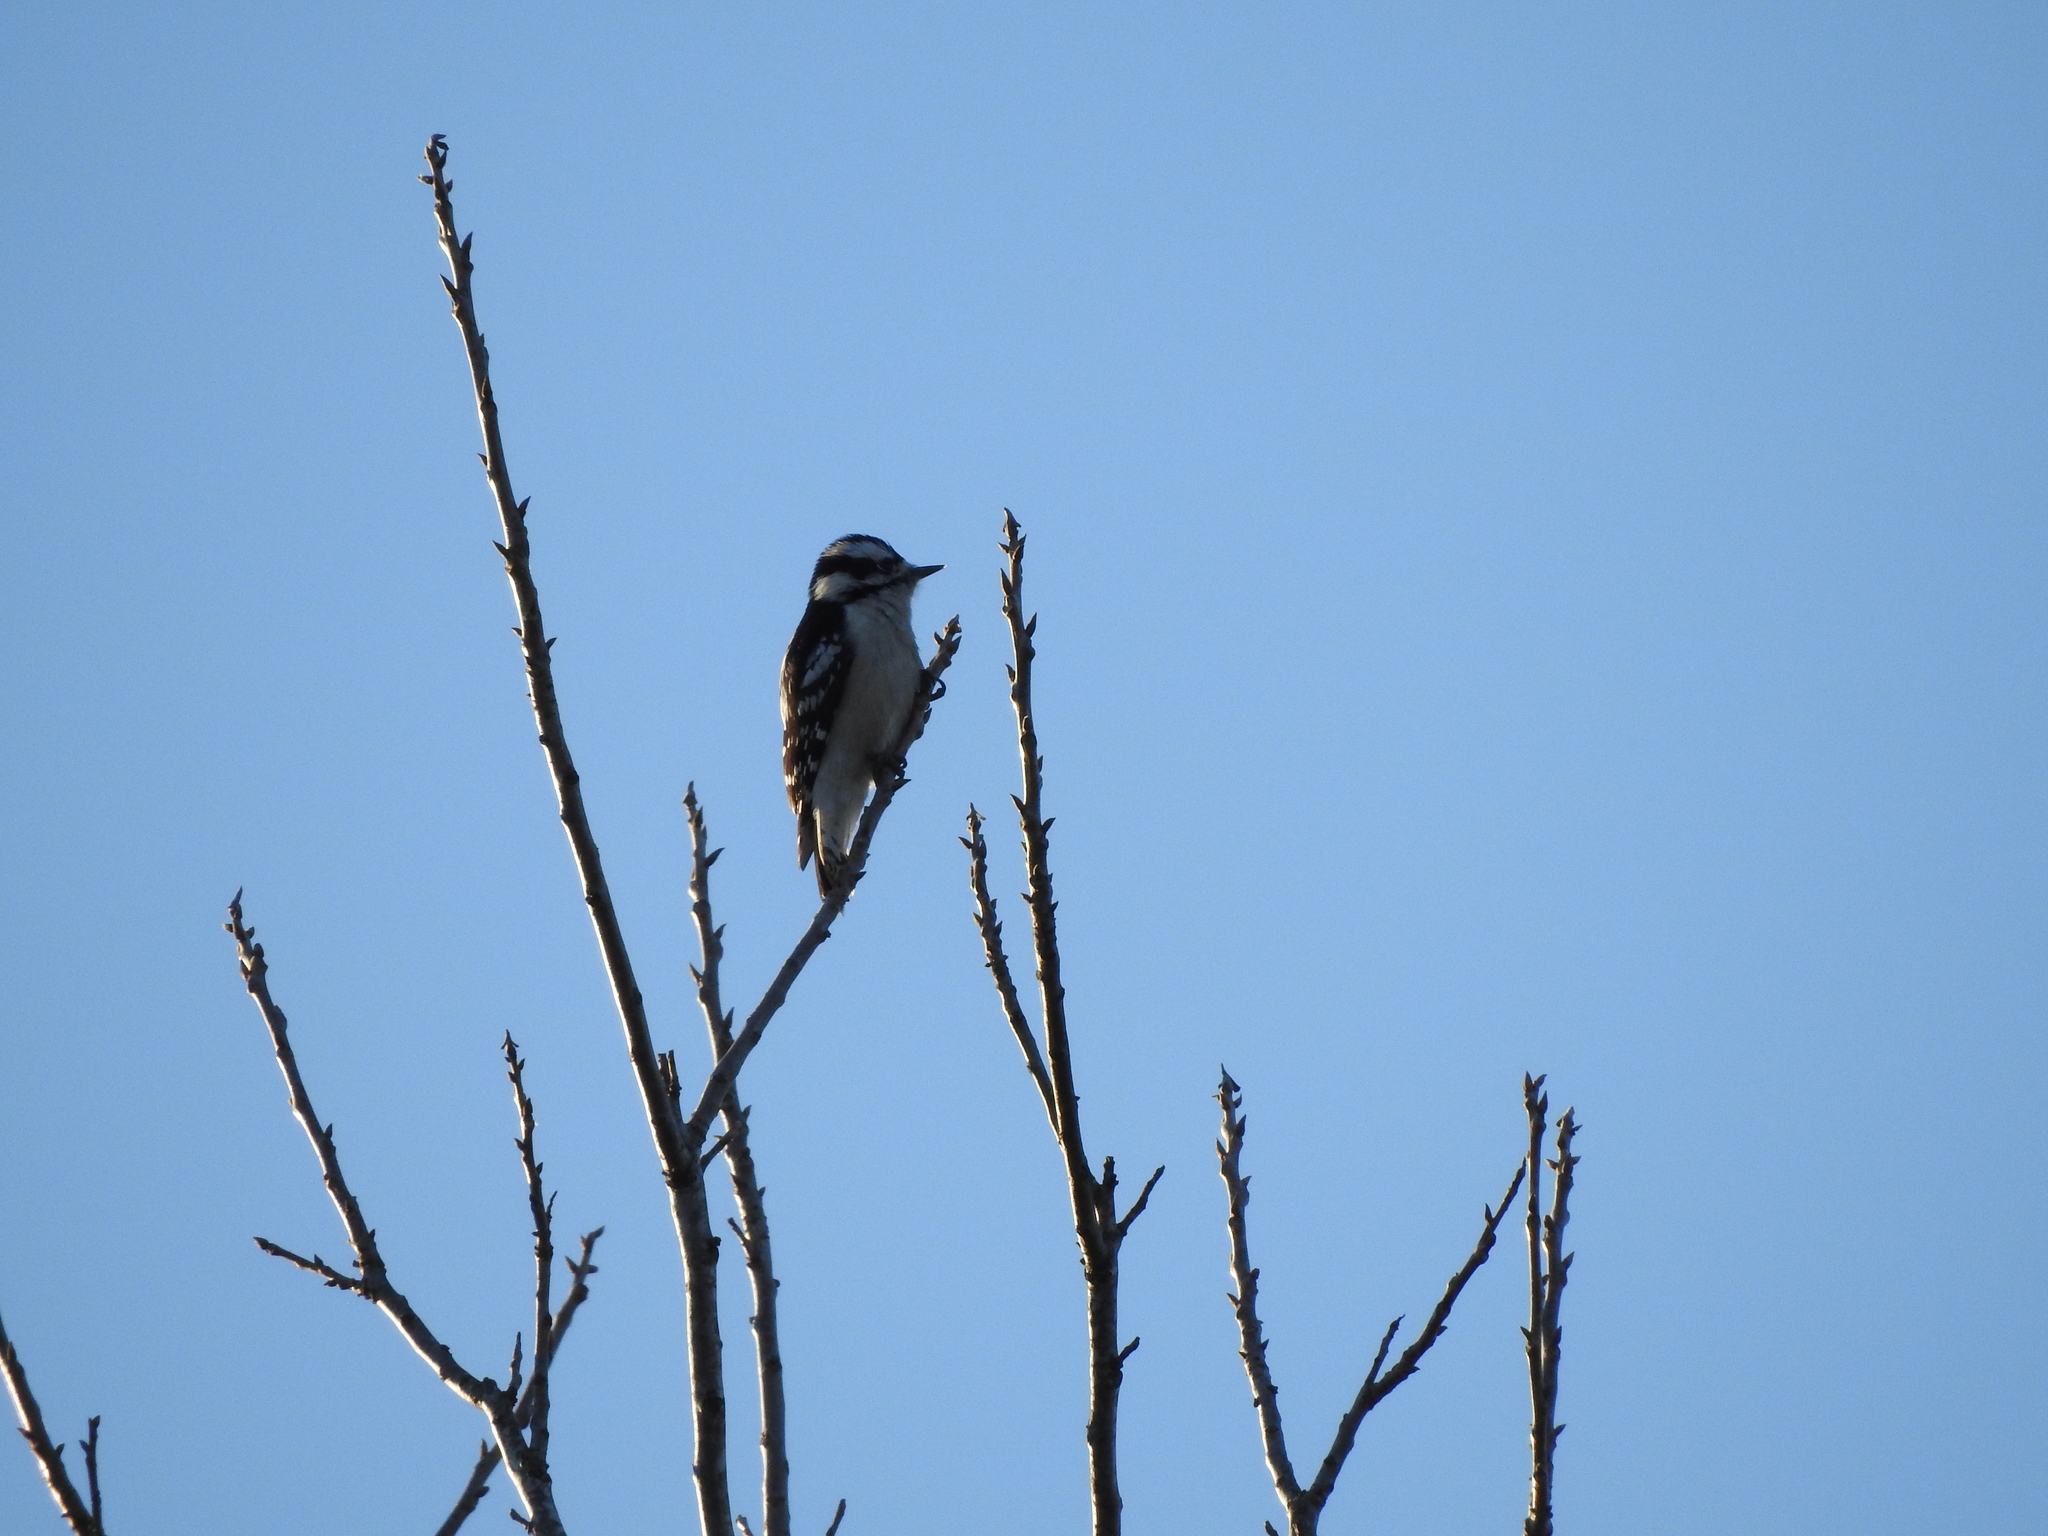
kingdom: Animalia
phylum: Chordata
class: Aves
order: Piciformes
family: Picidae
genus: Dryobates
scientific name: Dryobates pubescens
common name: Downy woodpecker
